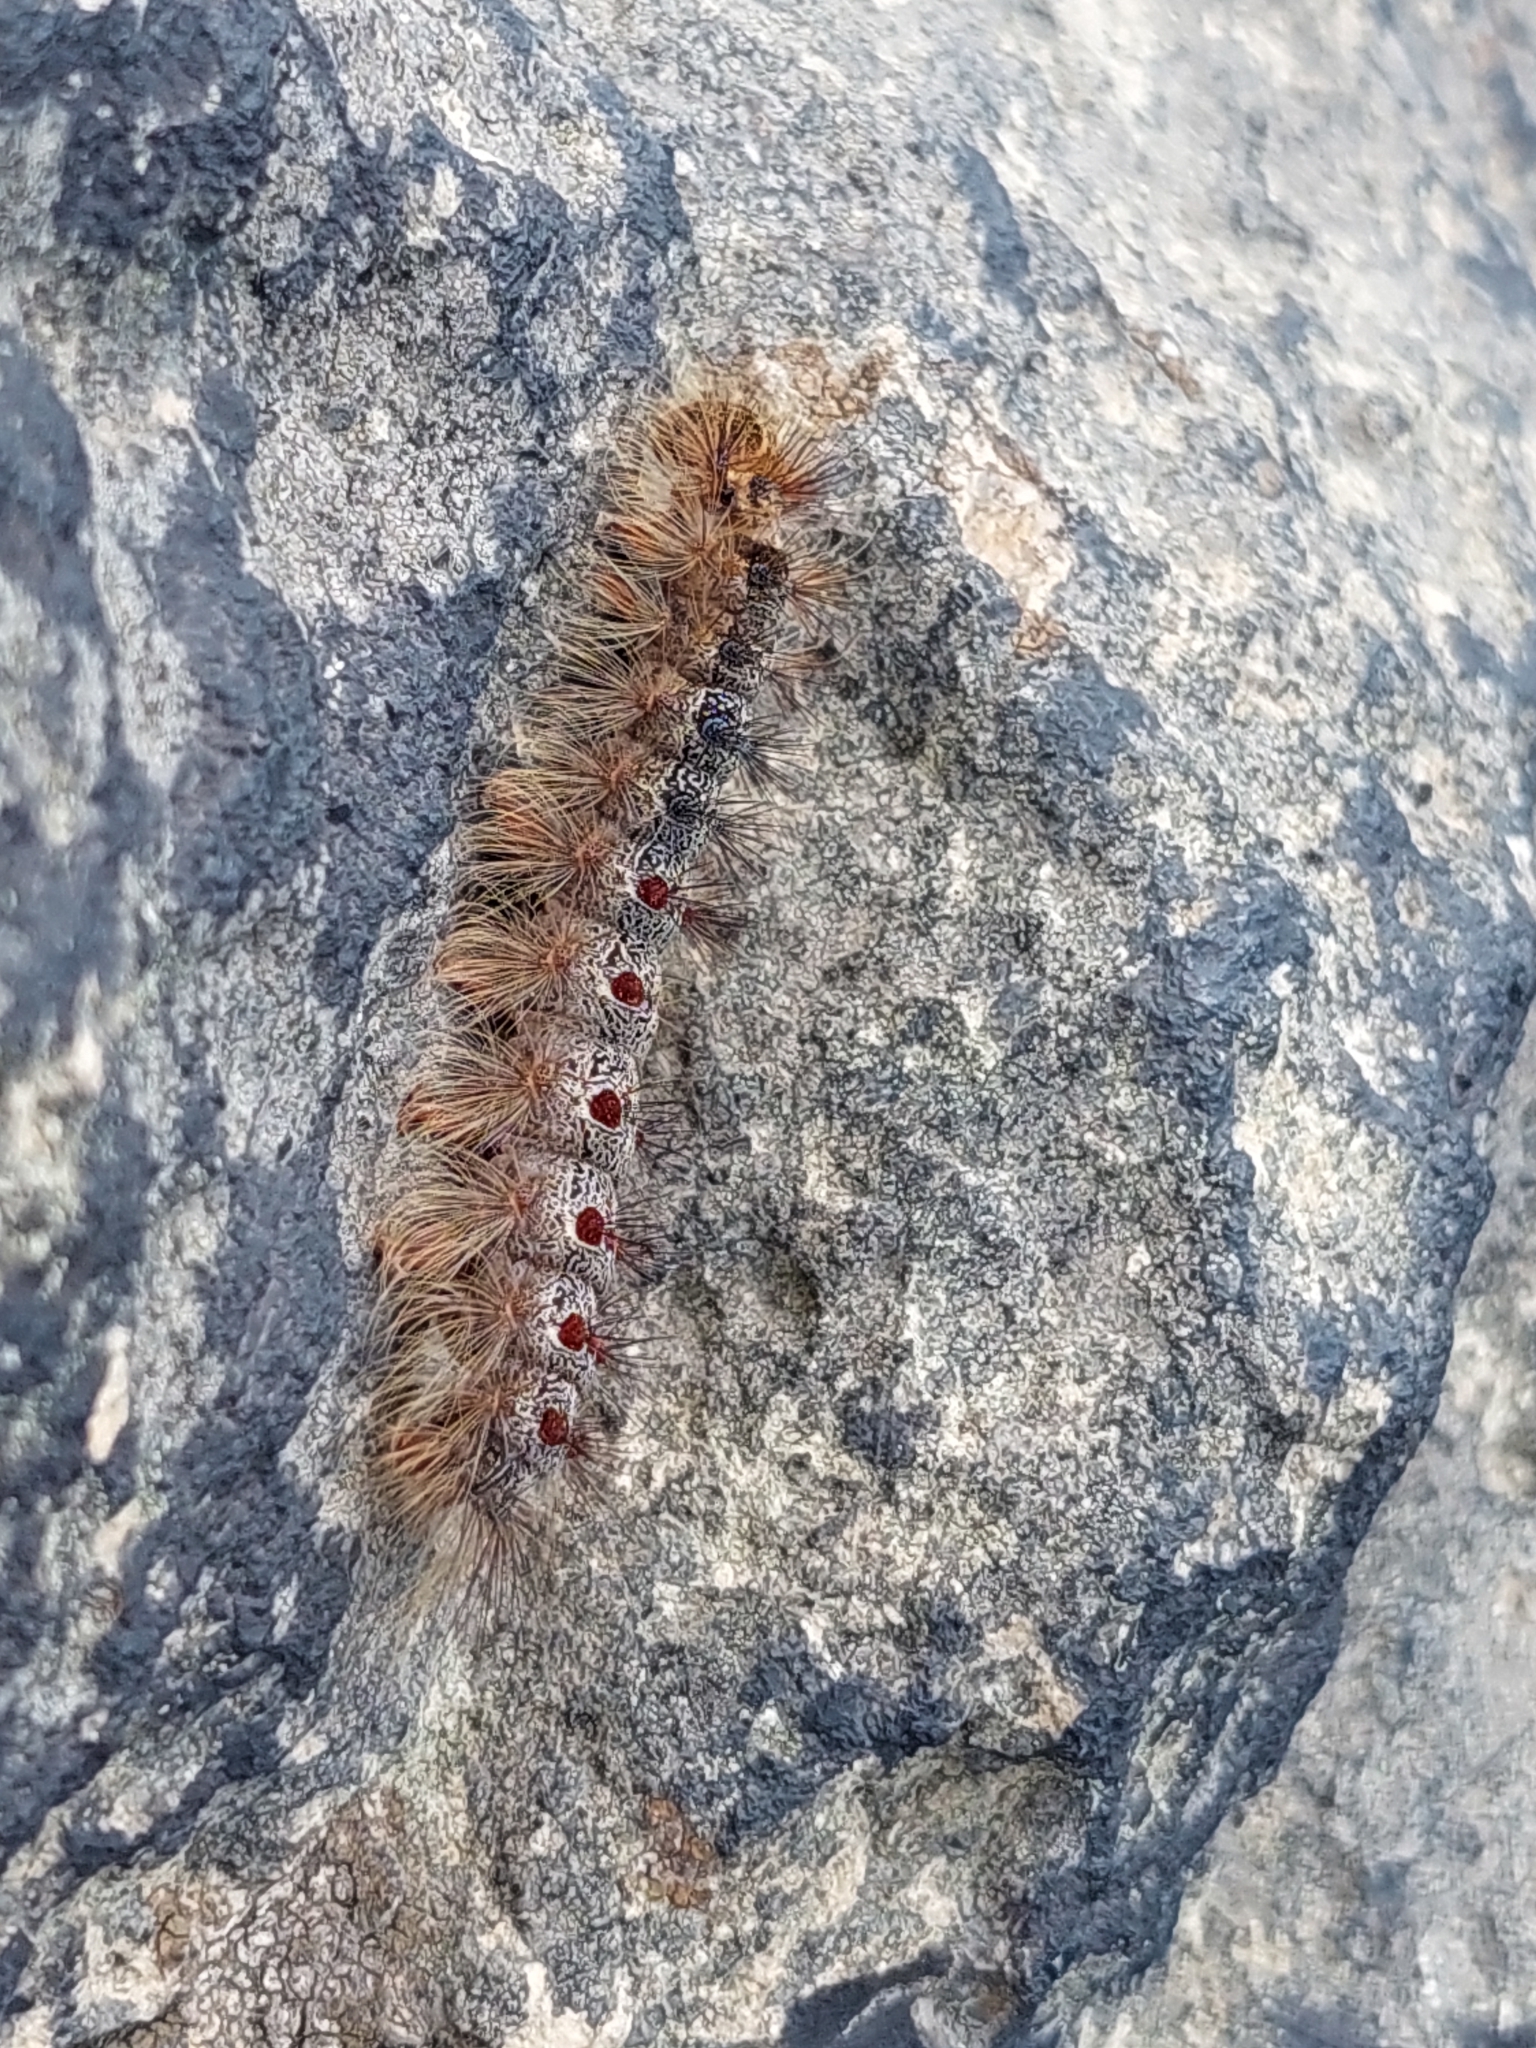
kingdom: Animalia
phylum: Arthropoda
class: Insecta
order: Lepidoptera
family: Erebidae
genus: Lymantria
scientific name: Lymantria dispar
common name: Gypsy moth
